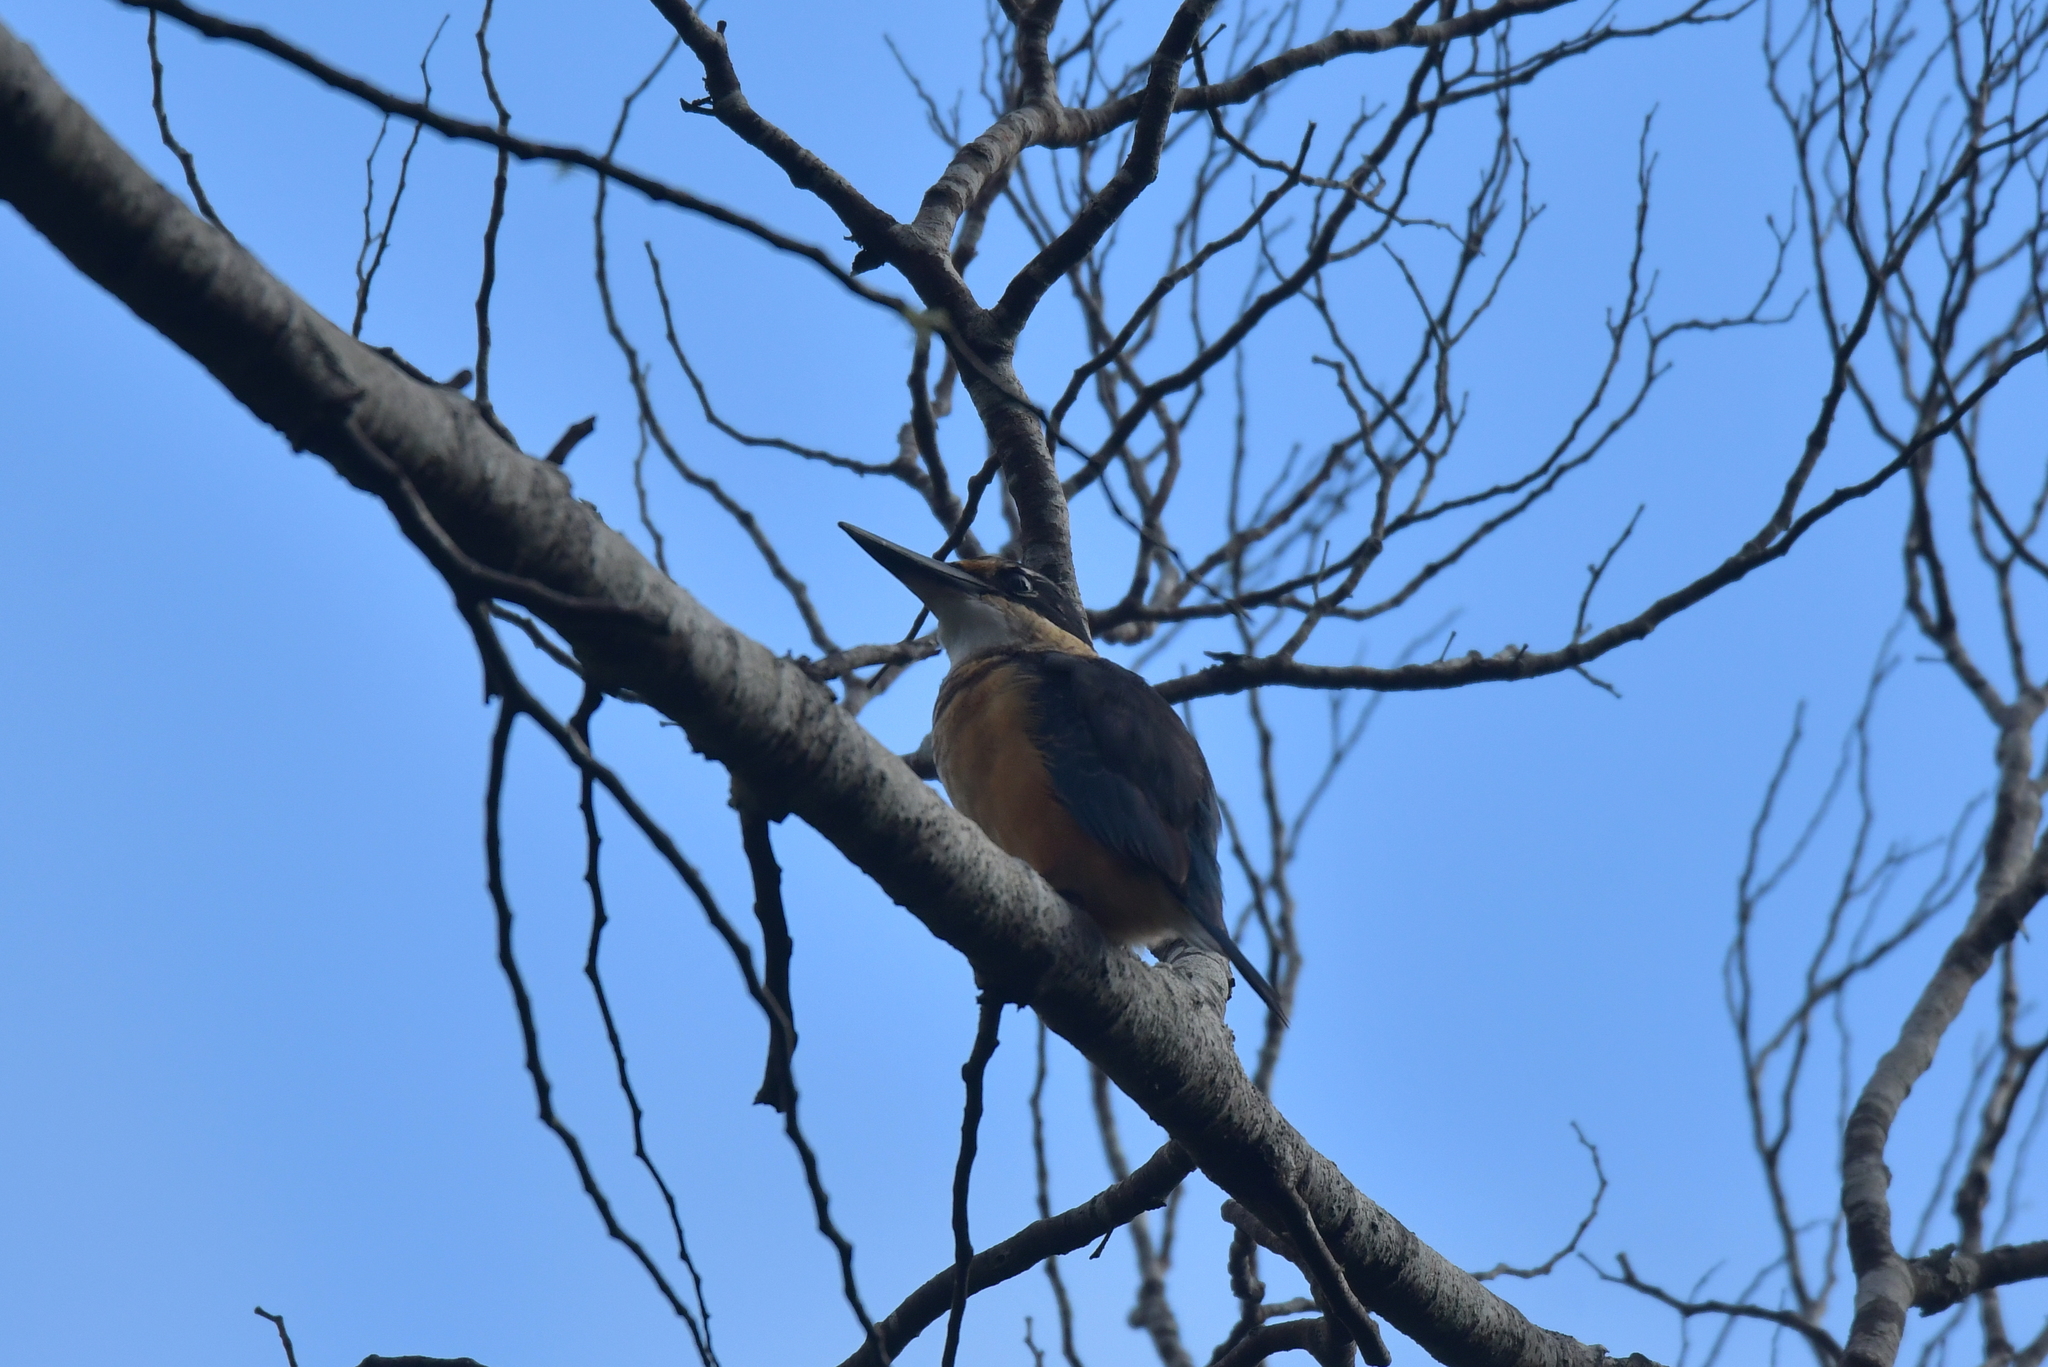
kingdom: Animalia
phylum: Chordata
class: Aves
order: Coraciiformes
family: Alcedinidae
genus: Todiramphus
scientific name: Todiramphus sanctus
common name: Sacred kingfisher
